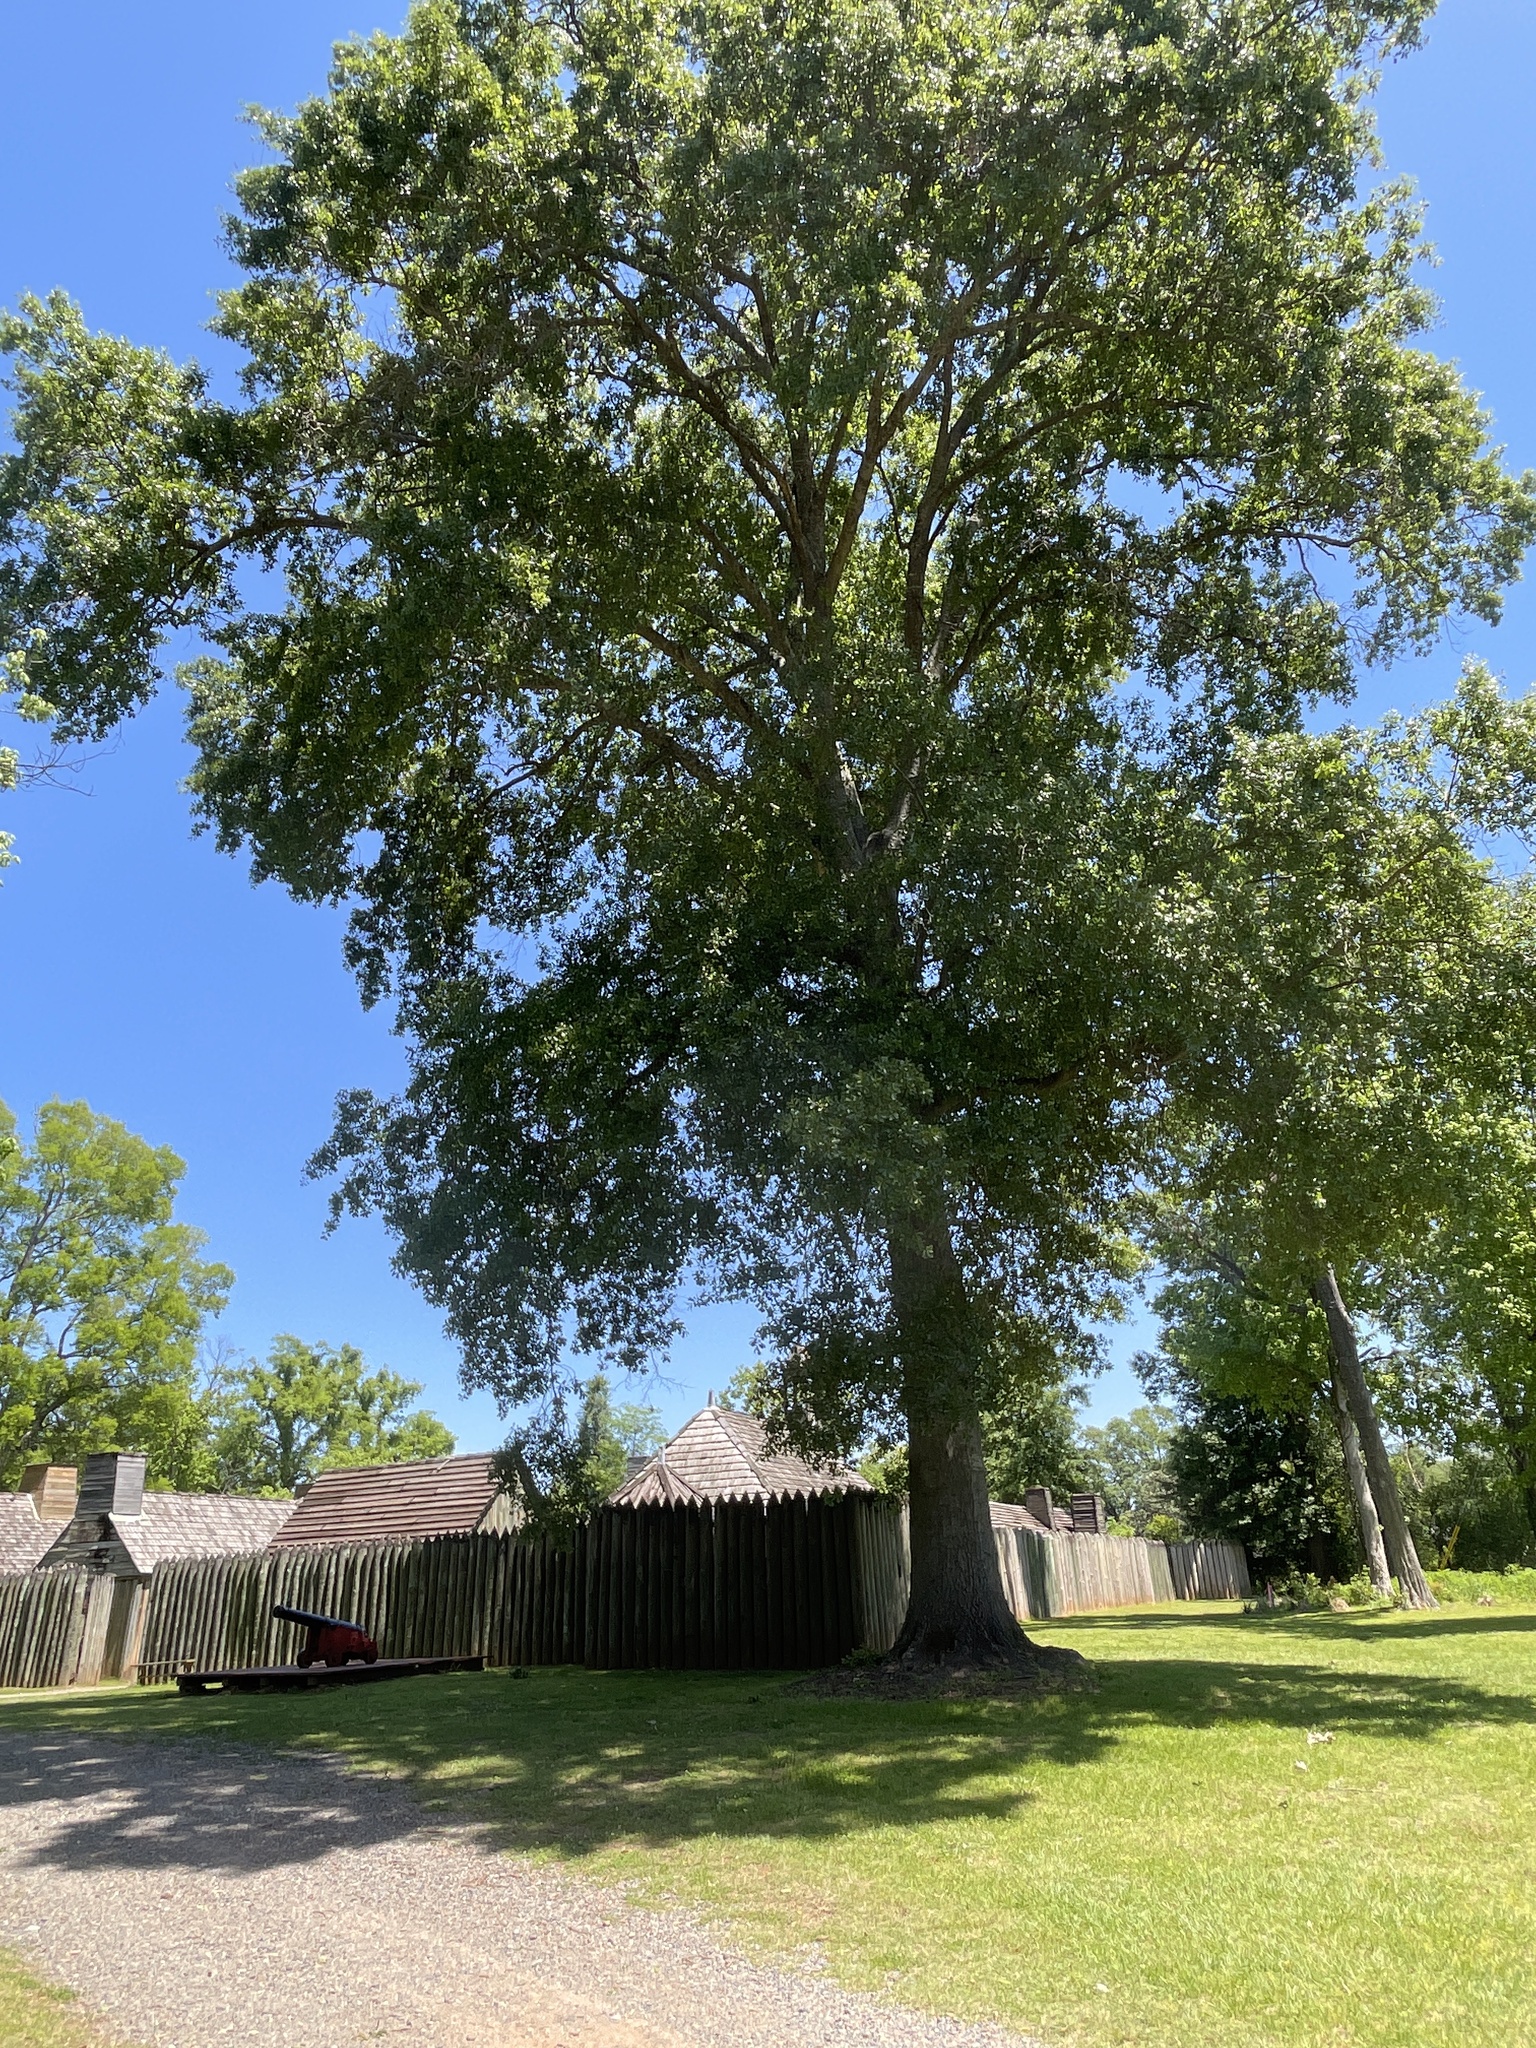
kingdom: Plantae
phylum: Tracheophyta
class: Magnoliopsida
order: Fagales
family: Fagaceae
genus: Quercus
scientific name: Quercus nigra
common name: Water oak
